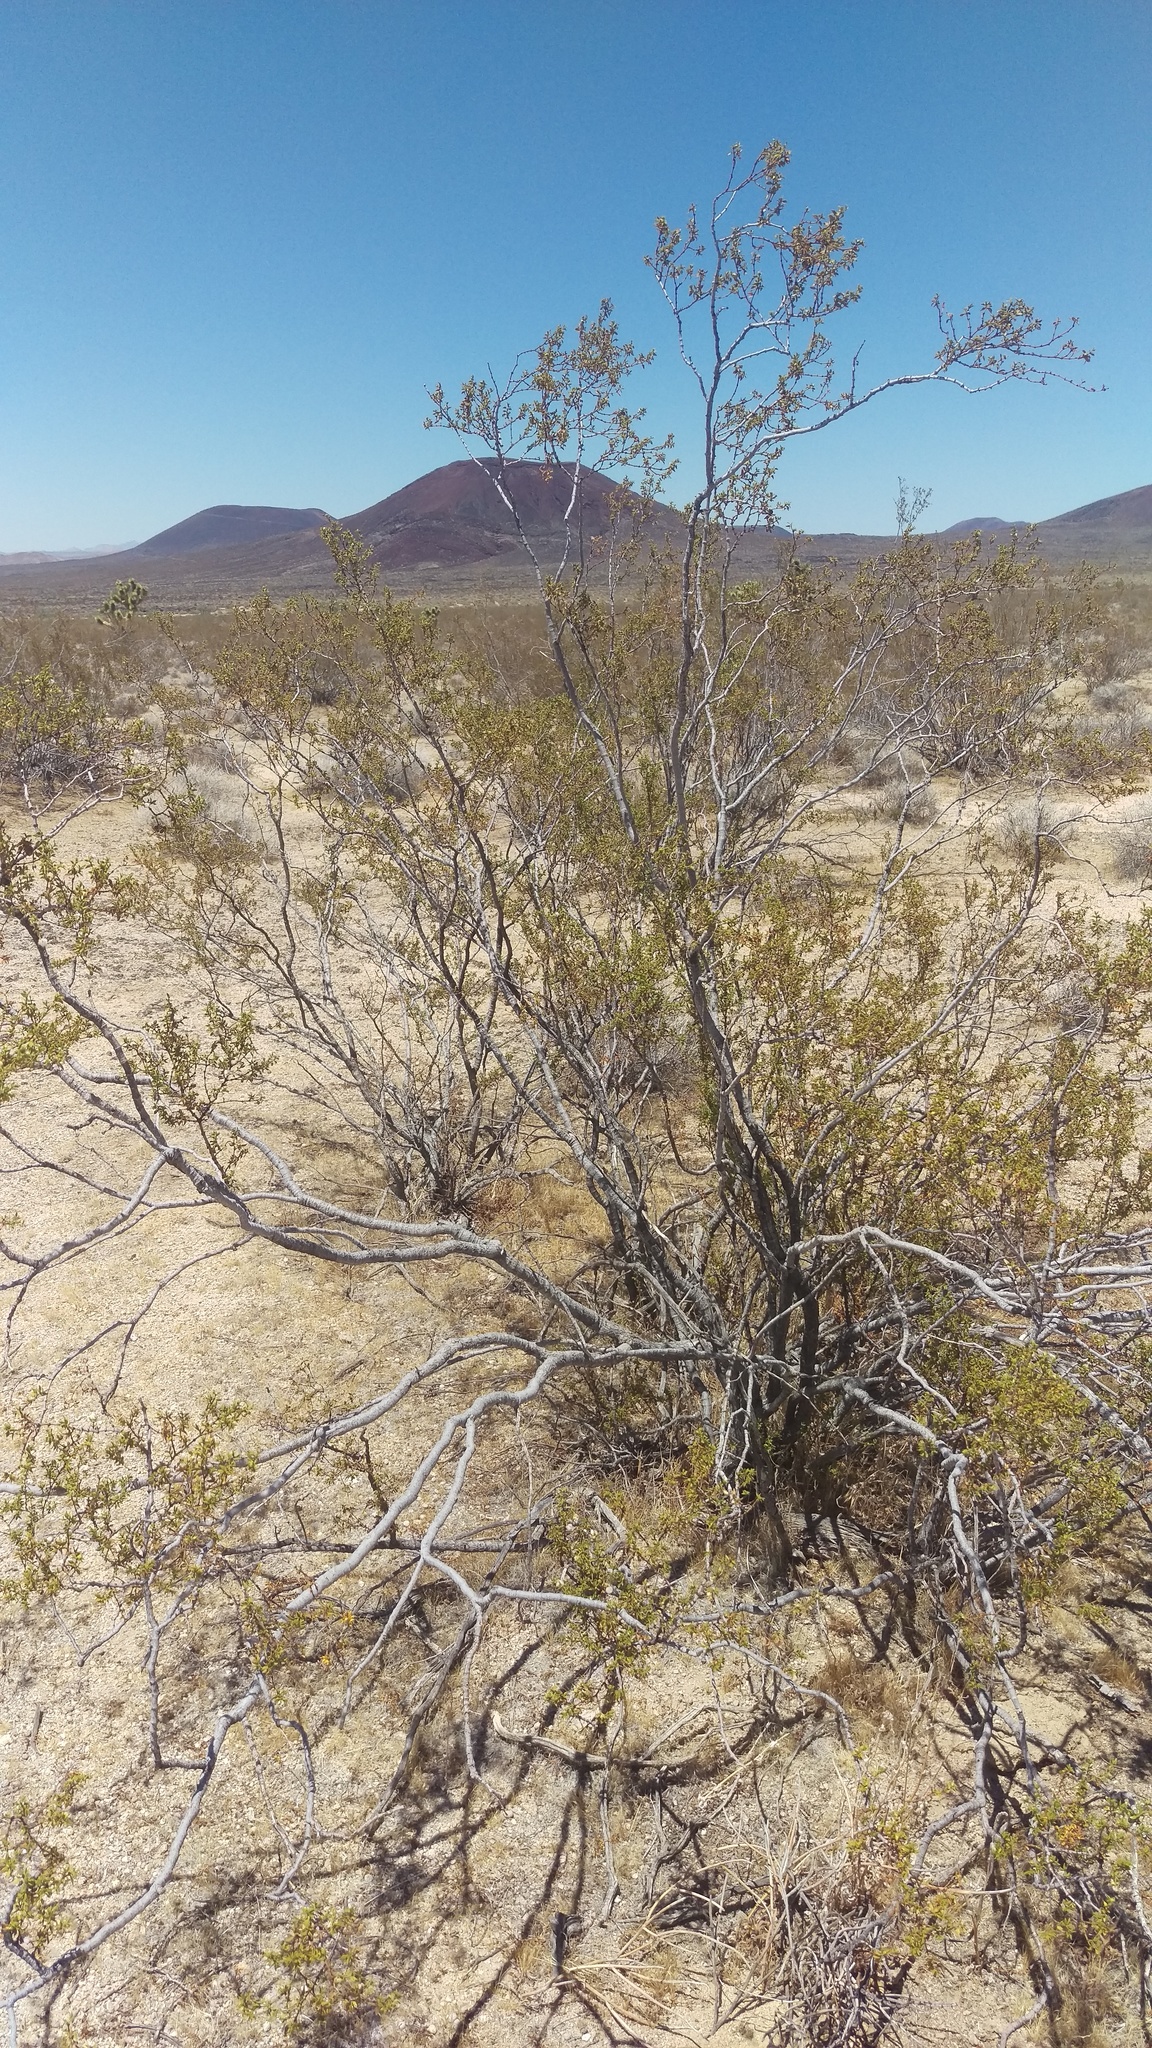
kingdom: Plantae
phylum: Tracheophyta
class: Magnoliopsida
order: Zygophyllales
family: Zygophyllaceae
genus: Larrea
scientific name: Larrea tridentata
